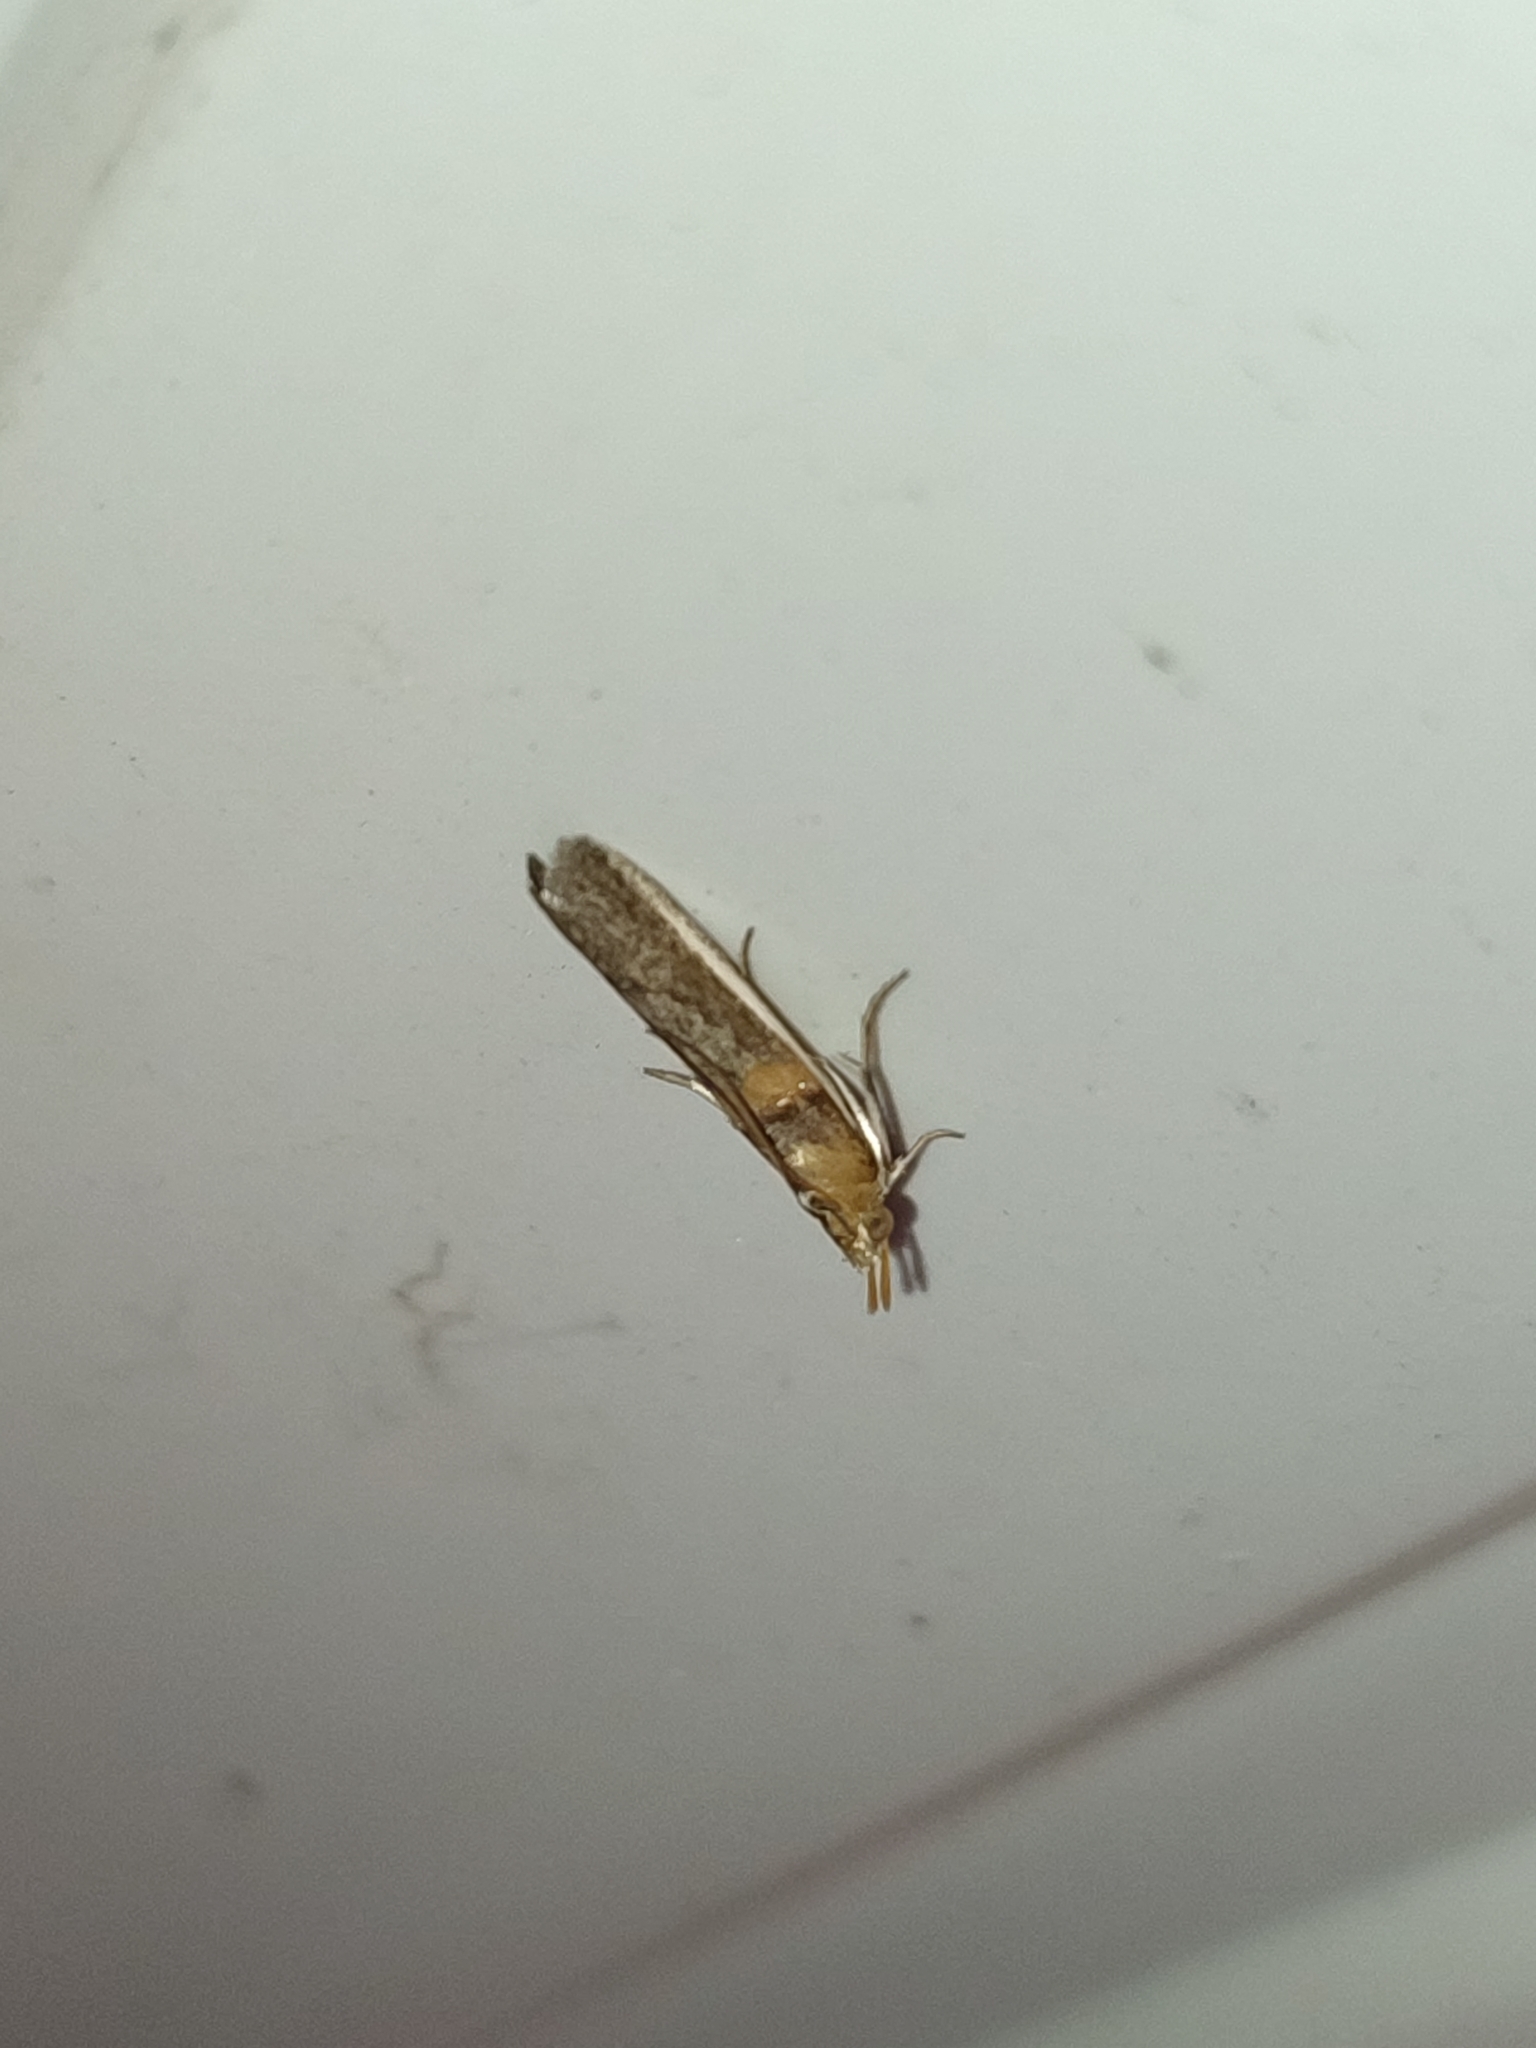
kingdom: Animalia
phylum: Arthropoda
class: Insecta
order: Lepidoptera
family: Pyralidae
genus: Etiella
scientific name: Etiella zinckenella
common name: Gold-banded etiella moth
